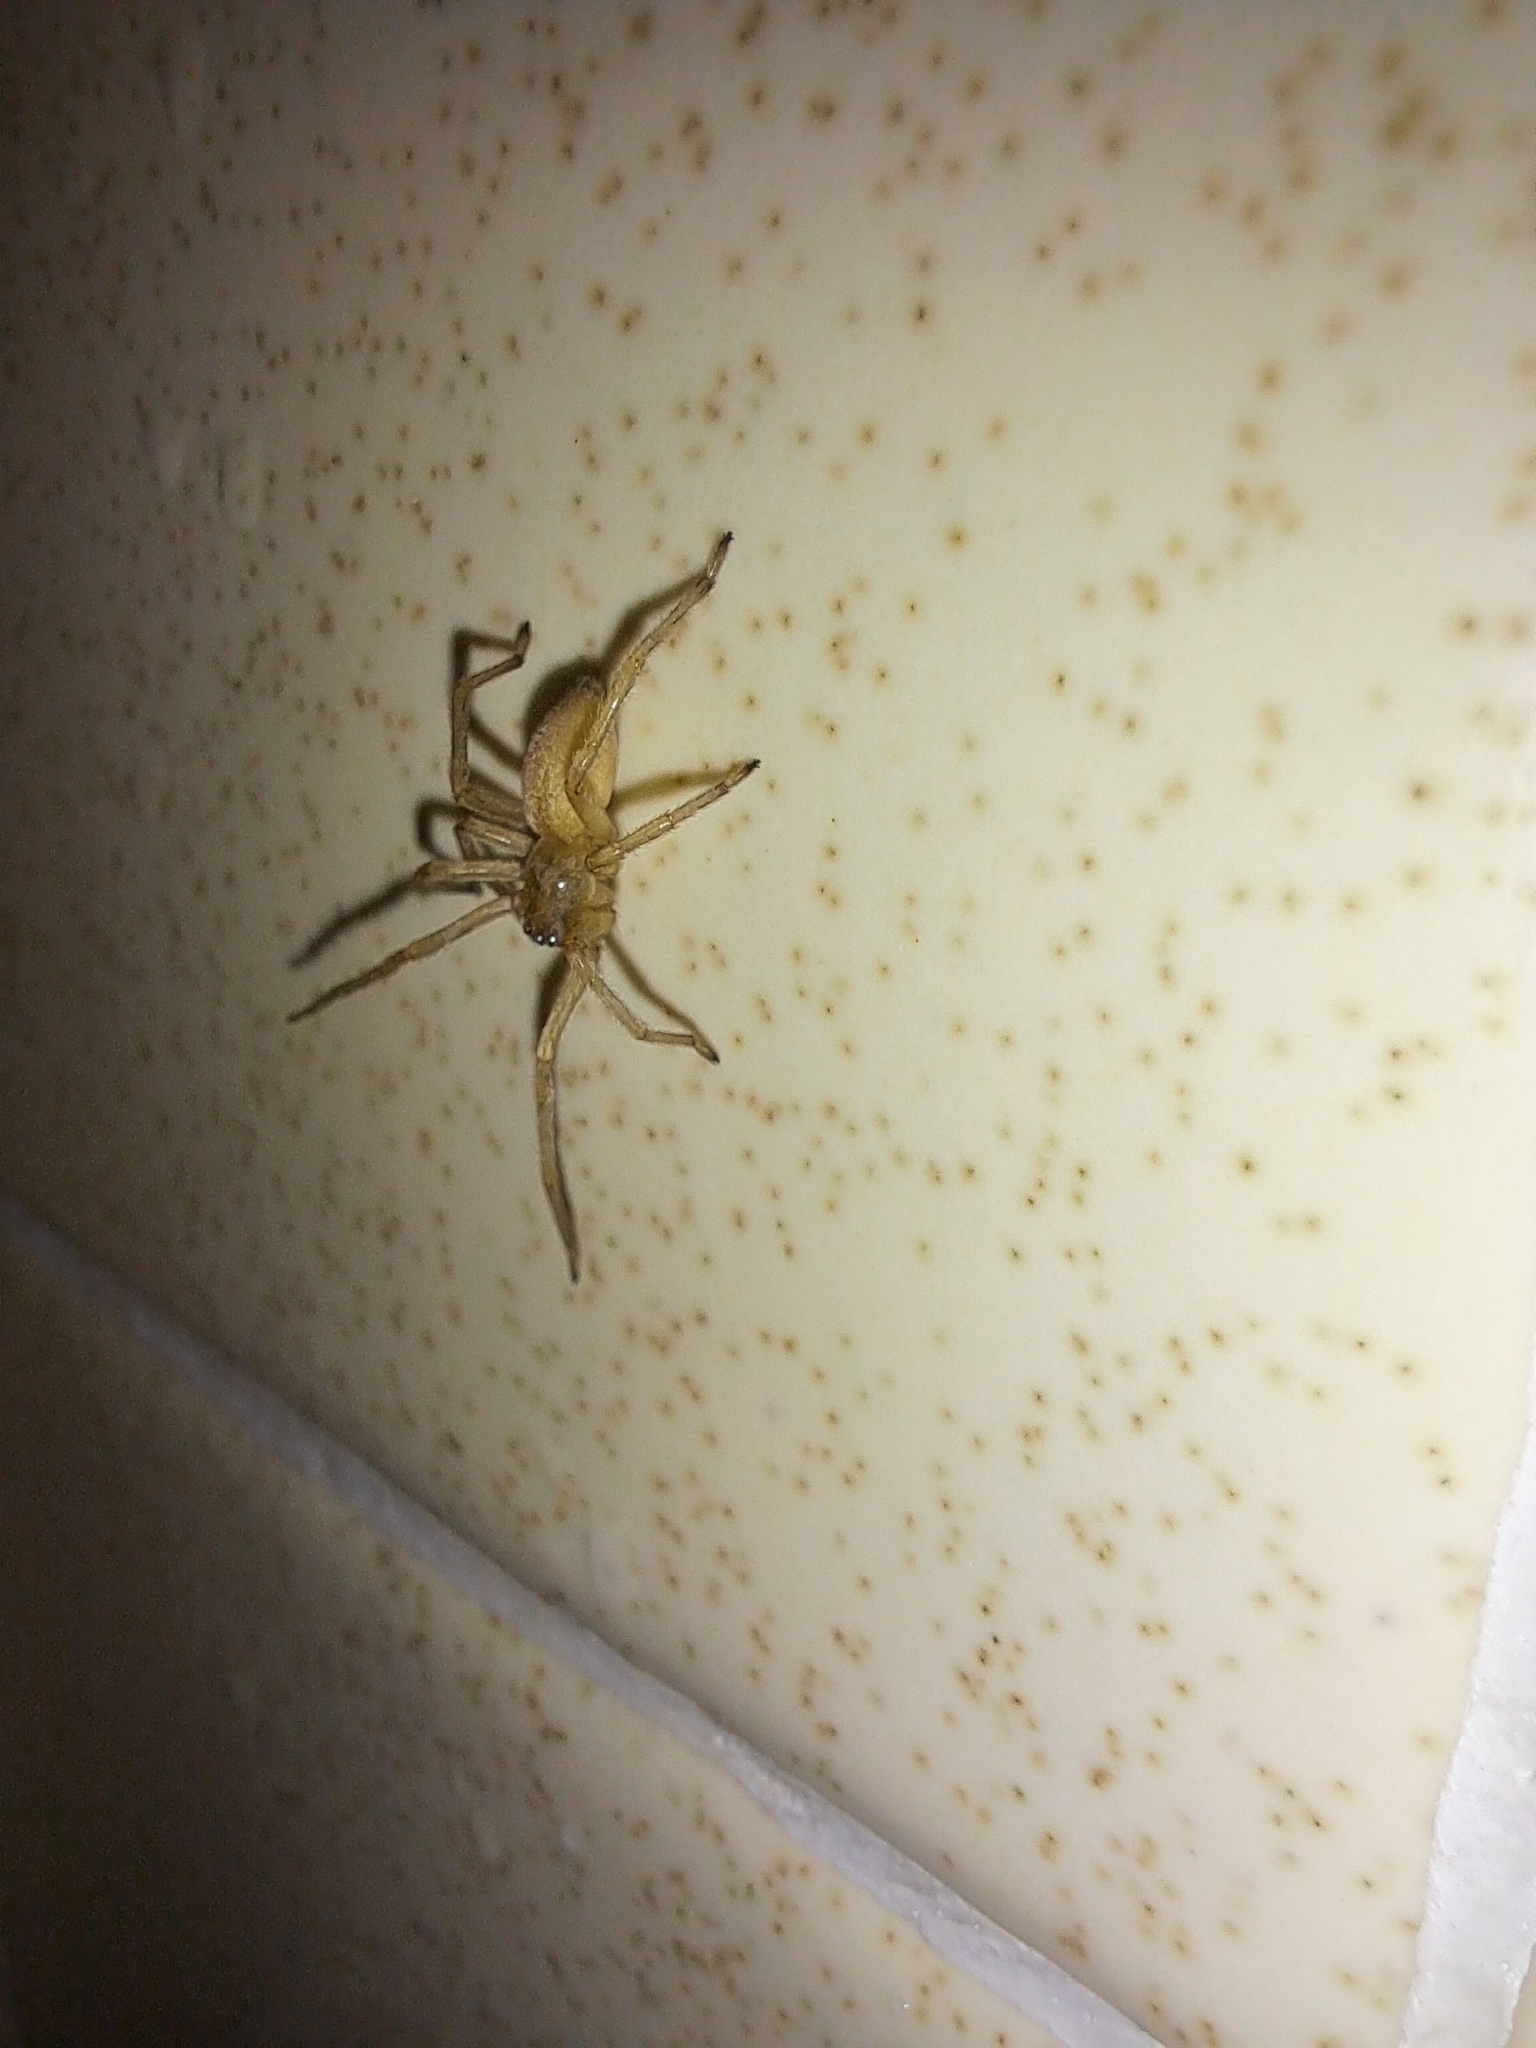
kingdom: Animalia
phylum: Arthropoda
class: Arachnida
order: Araneae
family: Cheiracanthiidae
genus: Cheiracanthium
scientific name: Cheiracanthium mildei
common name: Northern yellow sac spider
